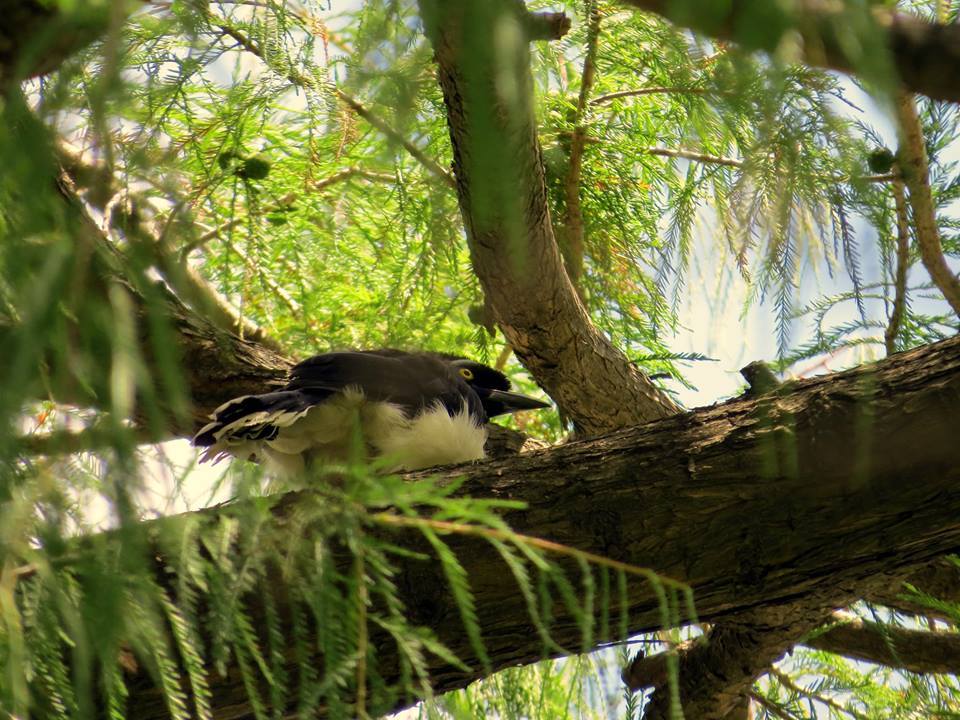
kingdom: Animalia
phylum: Chordata
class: Aves
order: Passeriformes
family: Corvidae
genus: Cyanocorax
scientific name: Cyanocorax chrysops
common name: Plush-crested jay
